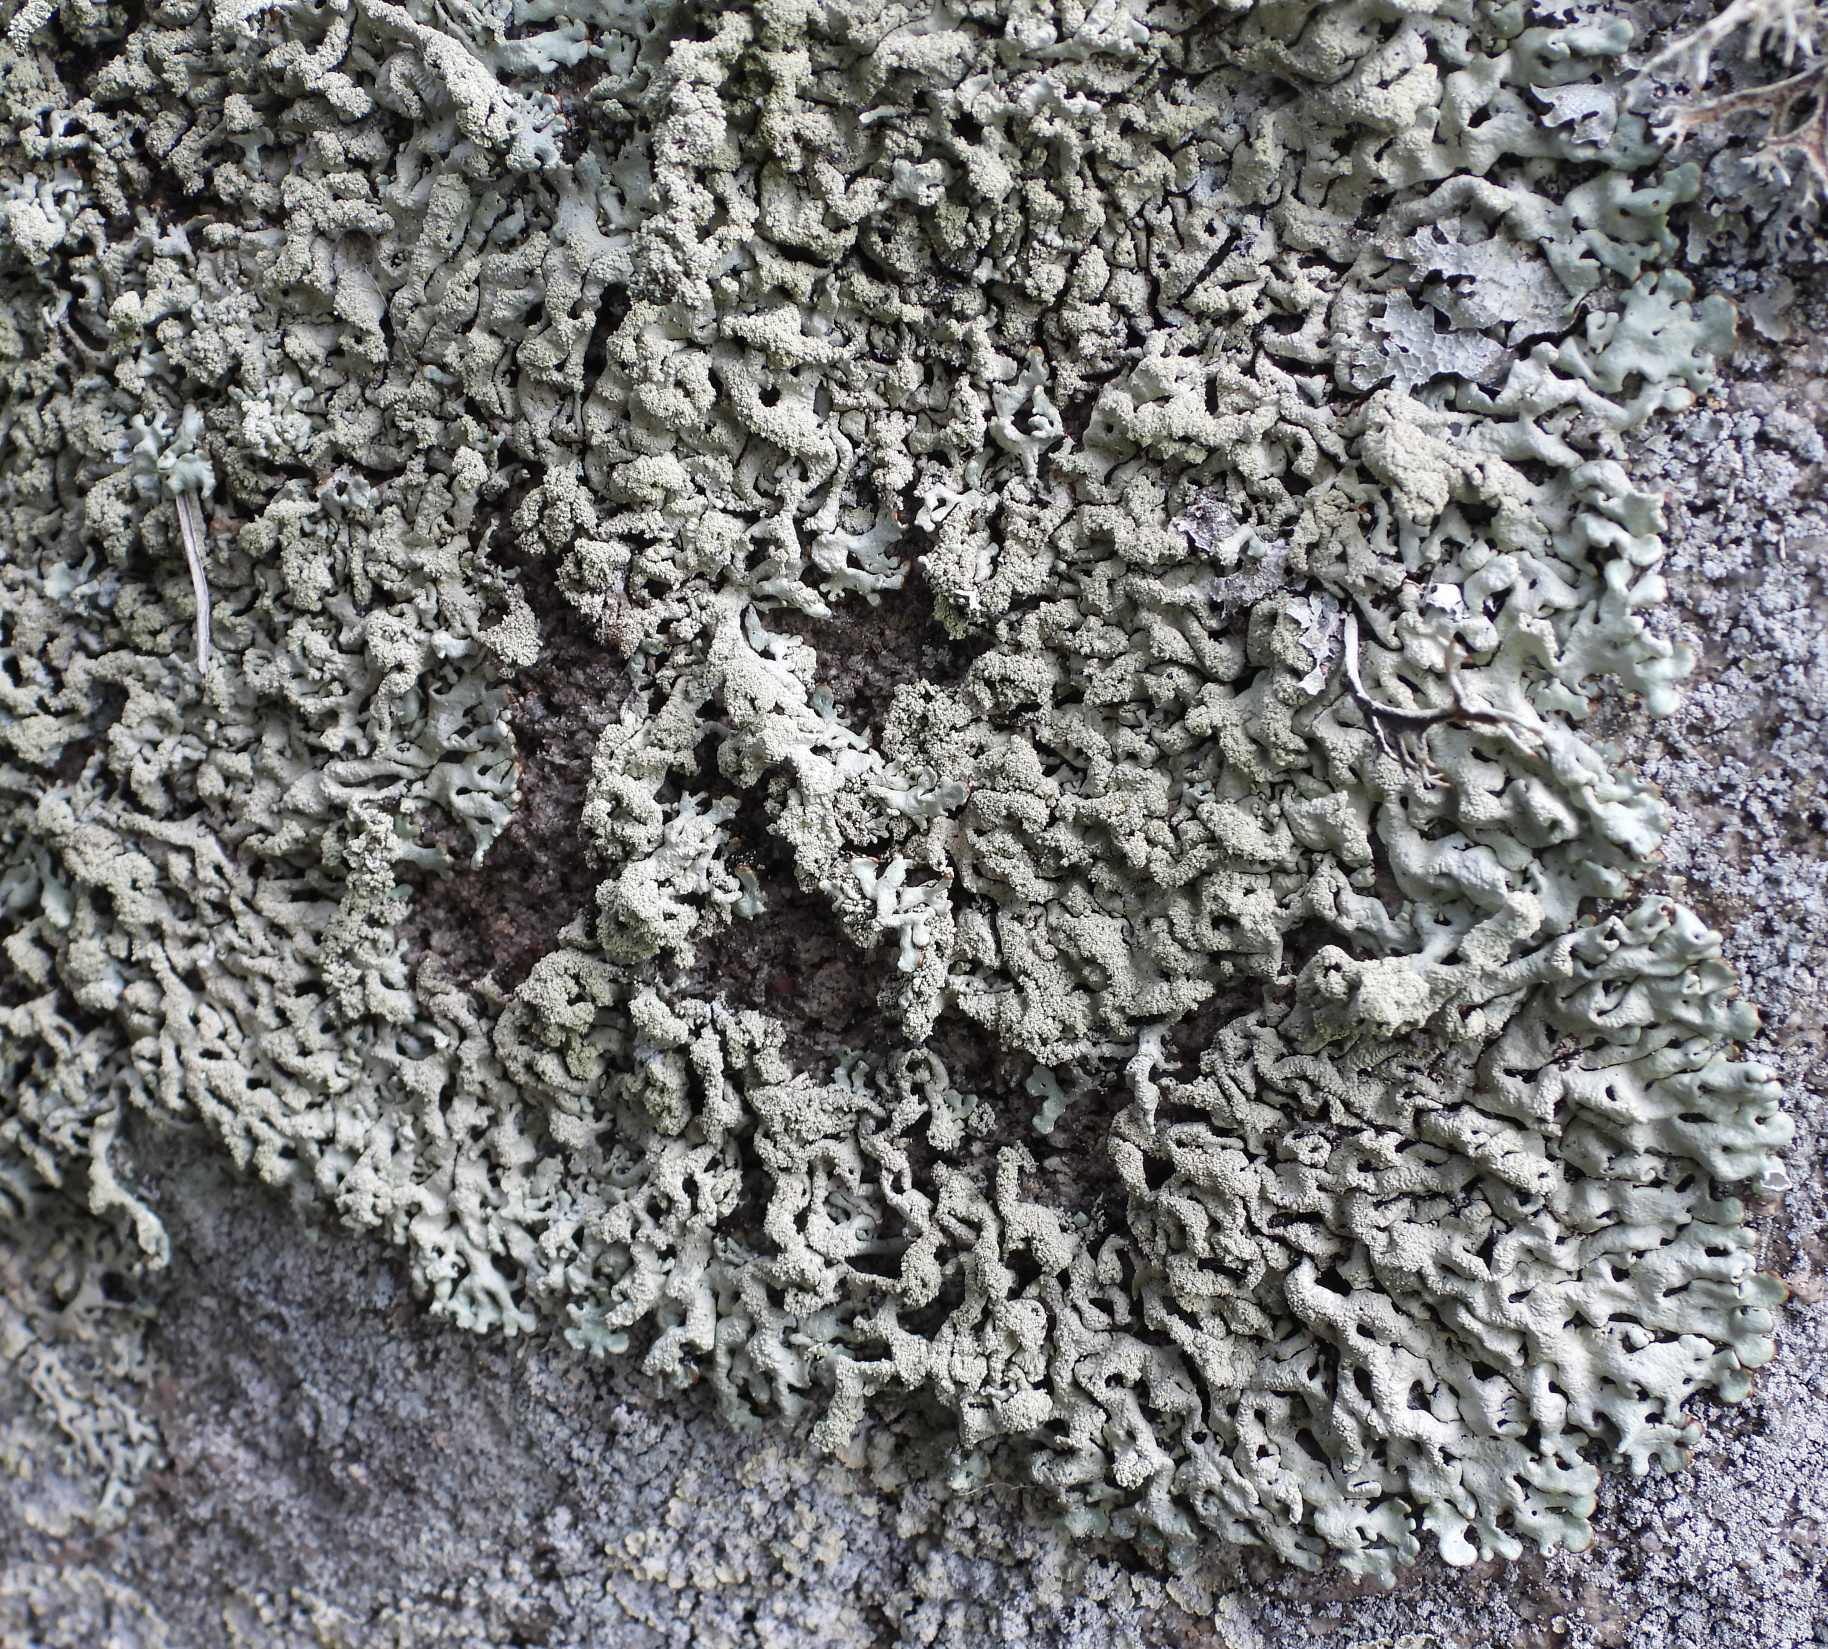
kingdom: Fungi
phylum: Ascomycota
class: Lecanoromycetes
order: Lecanorales
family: Parmeliaceae
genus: Hypogymnia
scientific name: Hypogymnia farinacea
